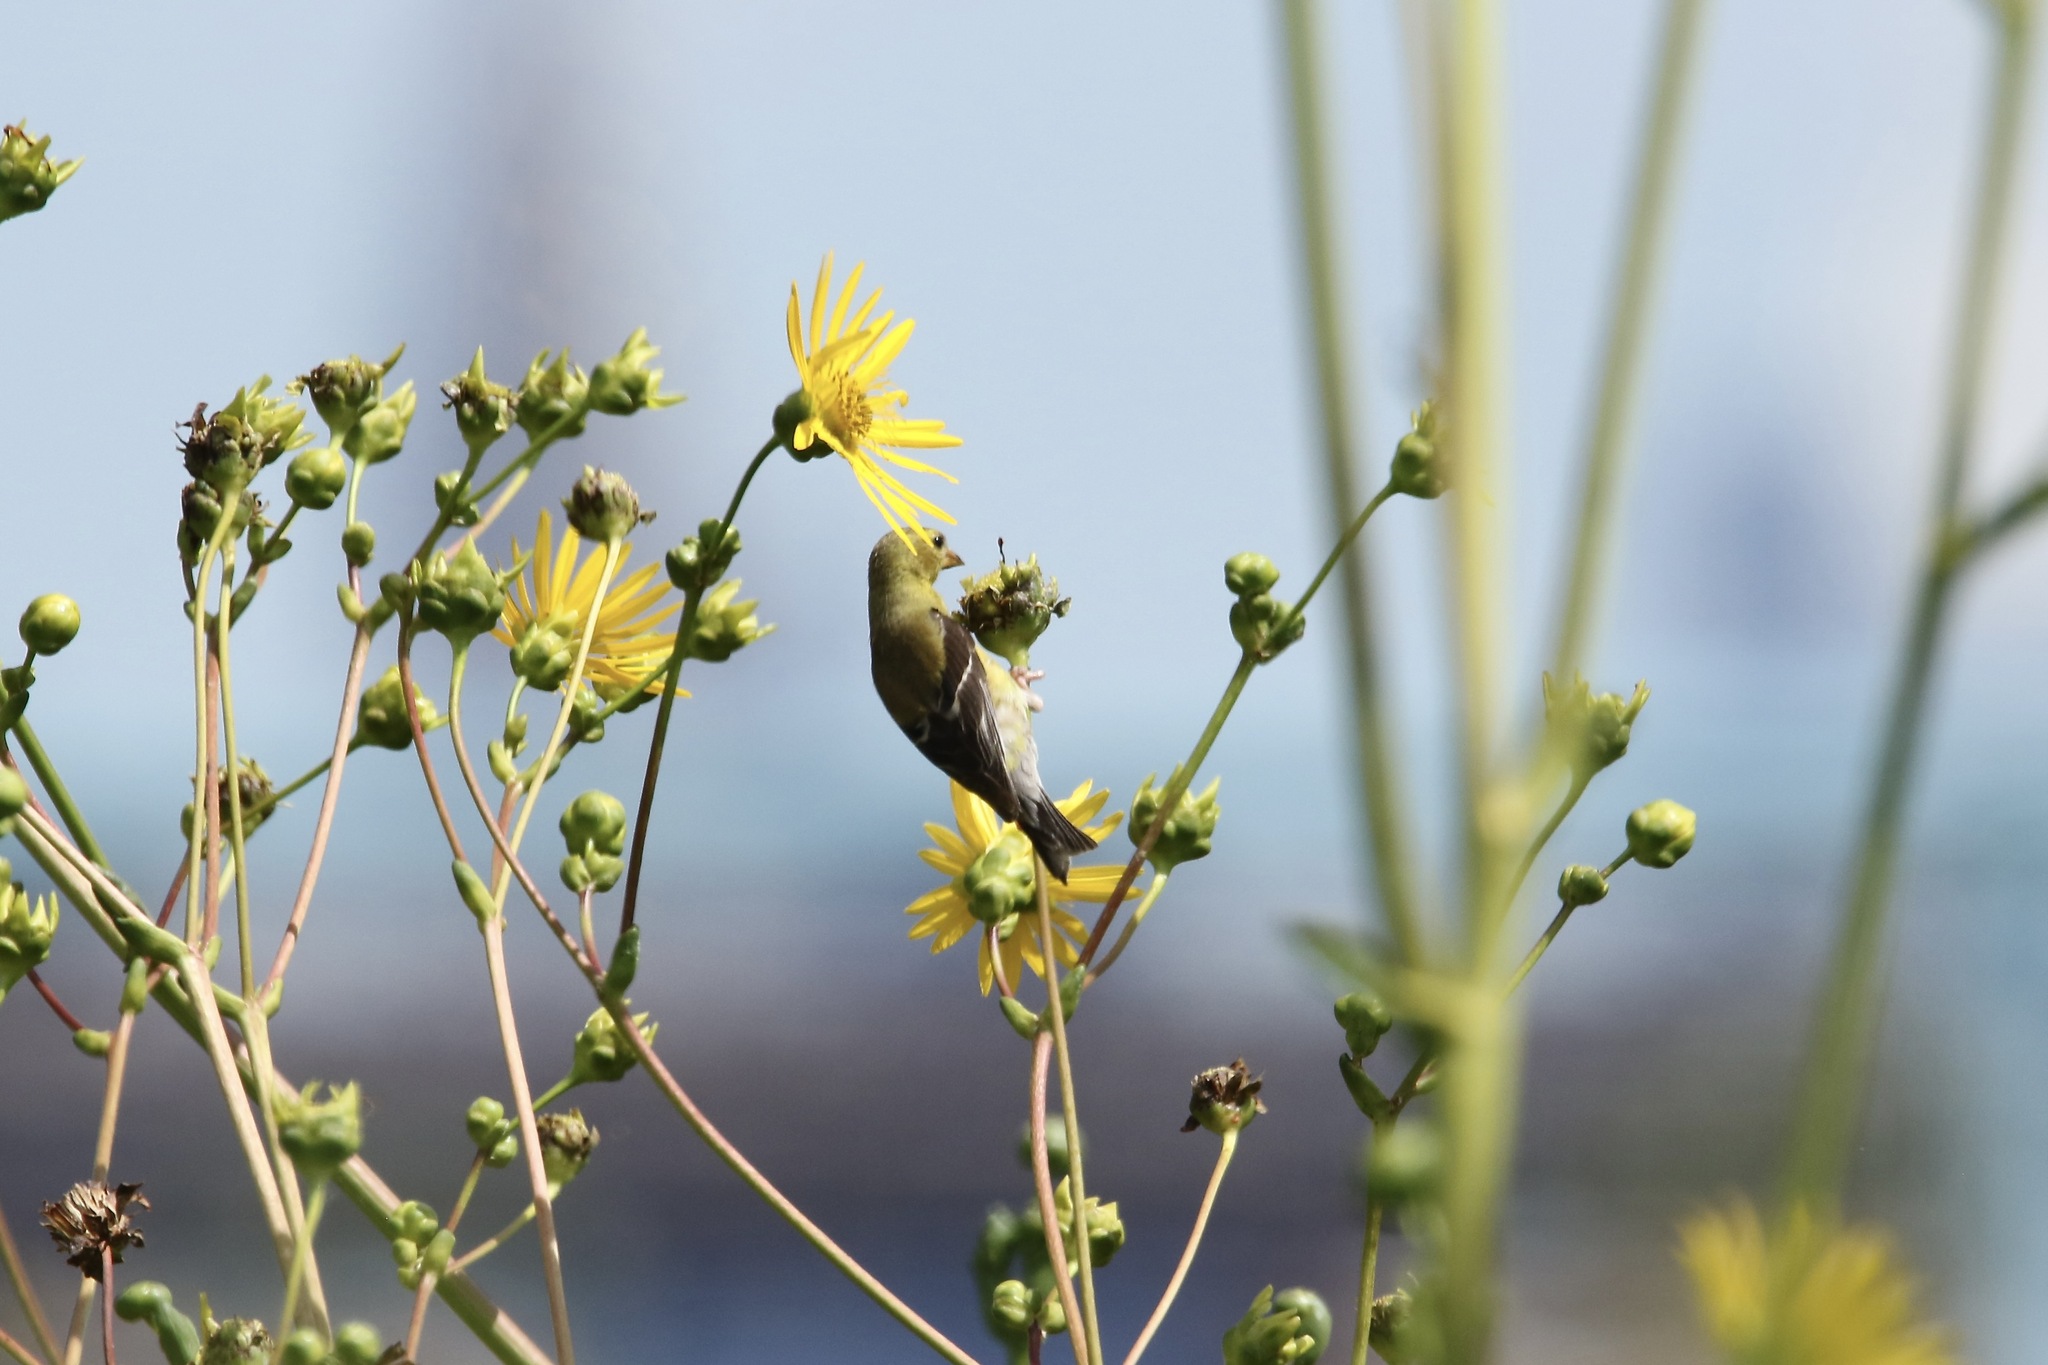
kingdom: Animalia
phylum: Chordata
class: Aves
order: Passeriformes
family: Fringillidae
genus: Spinus
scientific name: Spinus tristis
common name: American goldfinch
